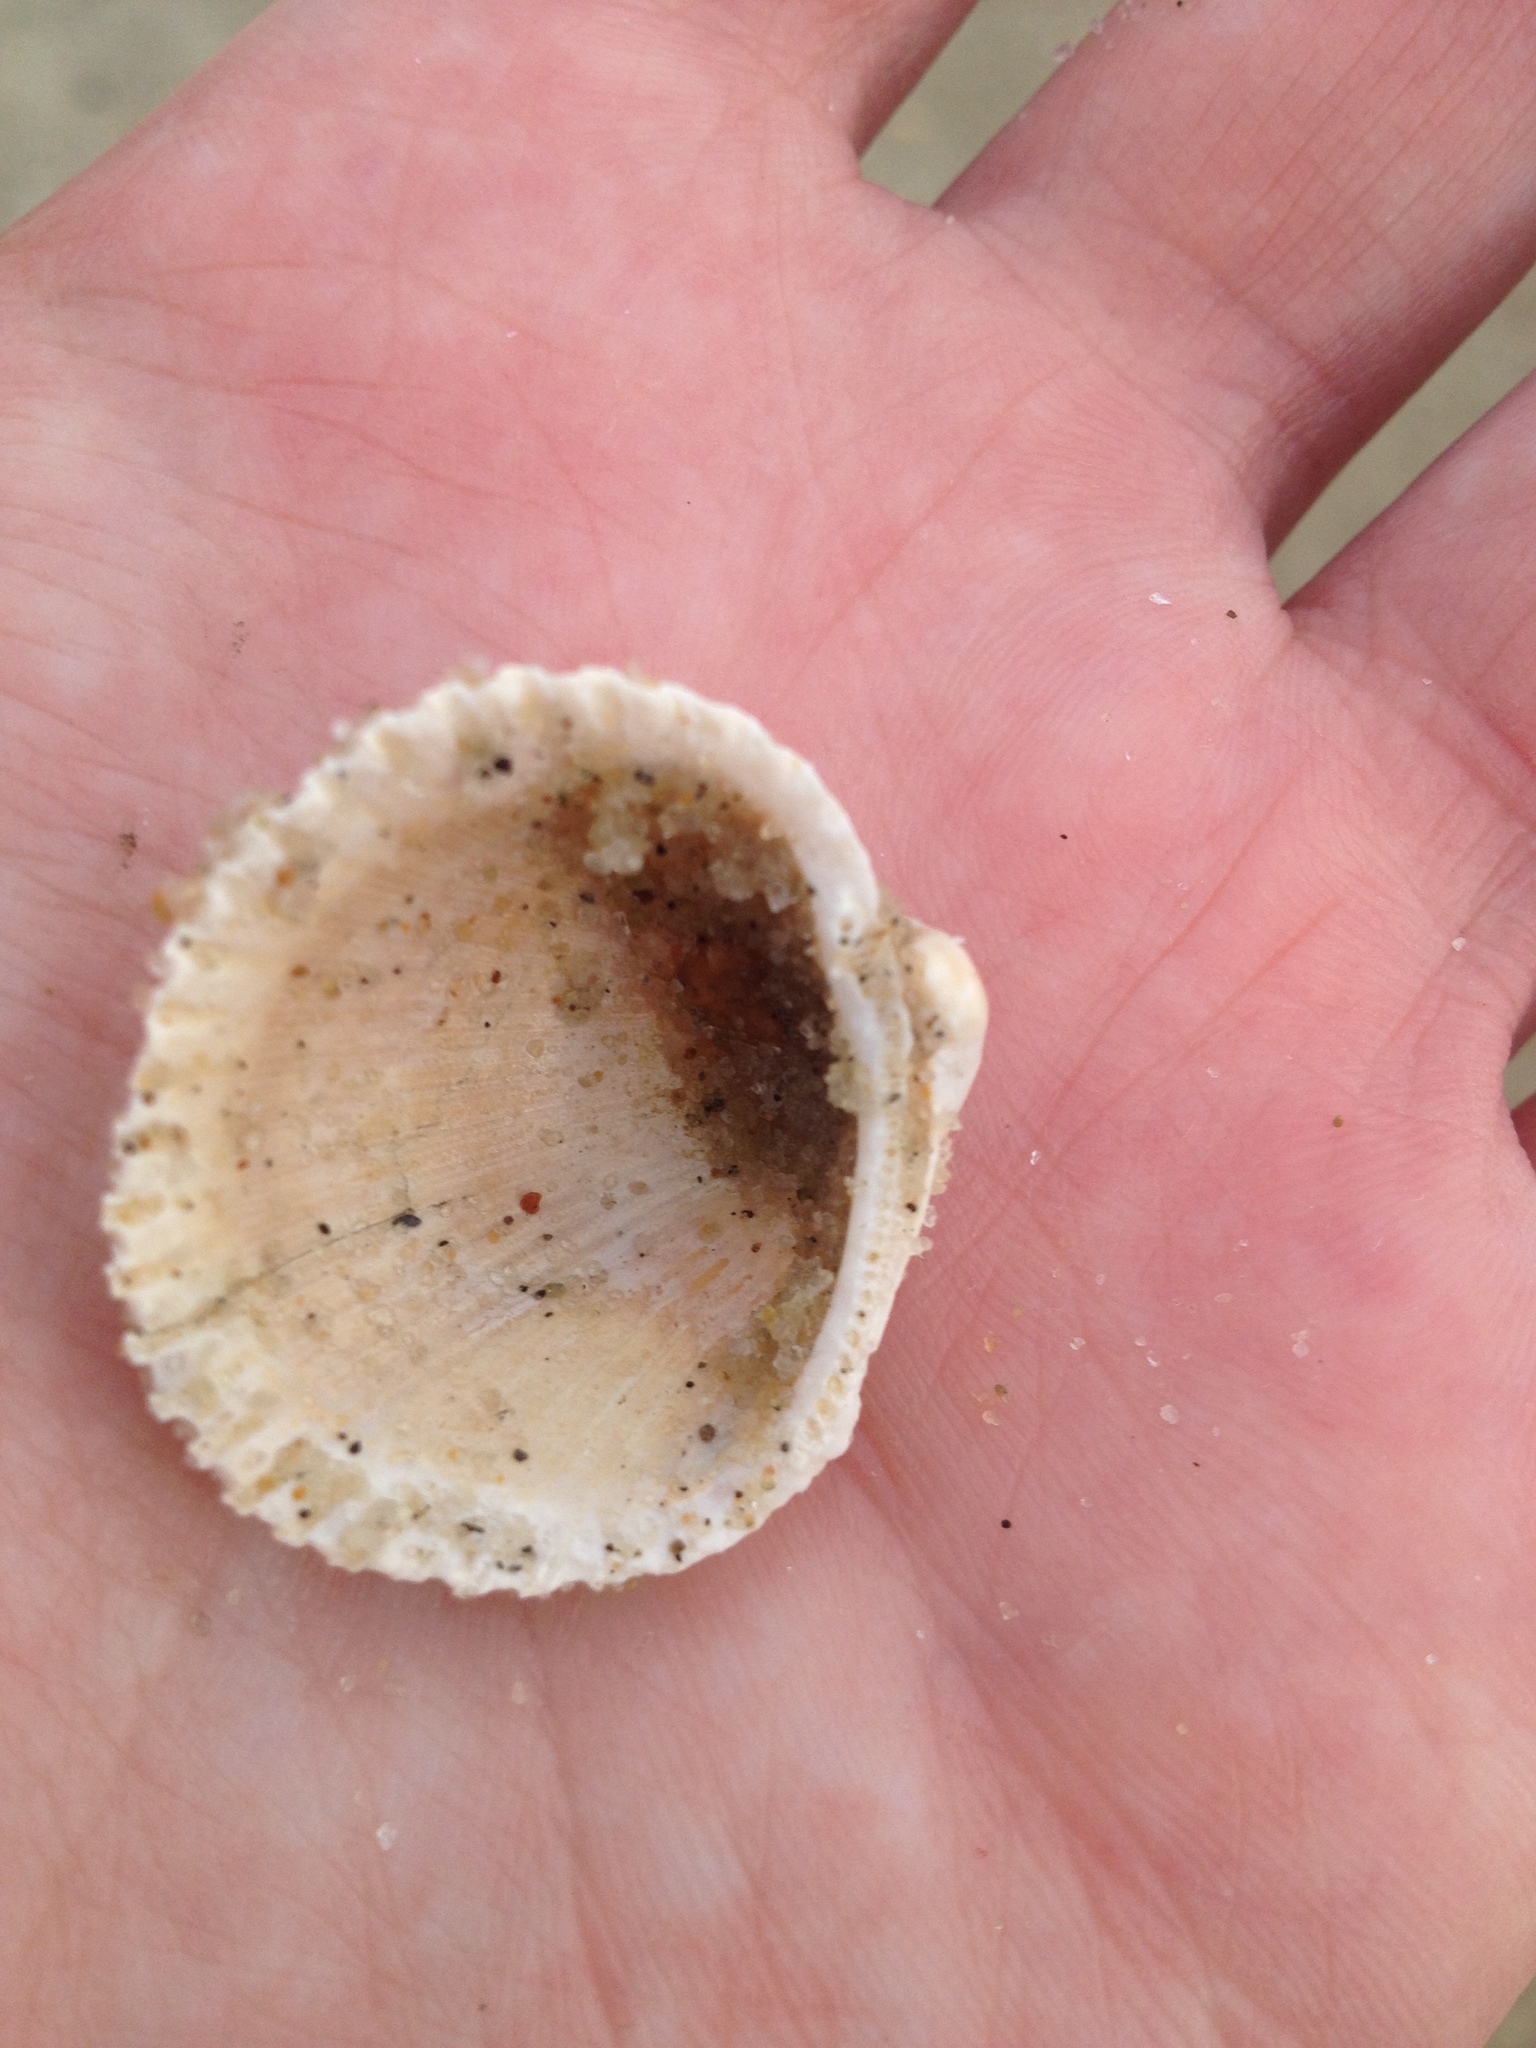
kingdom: Animalia
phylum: Mollusca
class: Bivalvia
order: Arcida
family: Arcidae
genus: Lunarca
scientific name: Lunarca ovalis
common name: Blood ark
